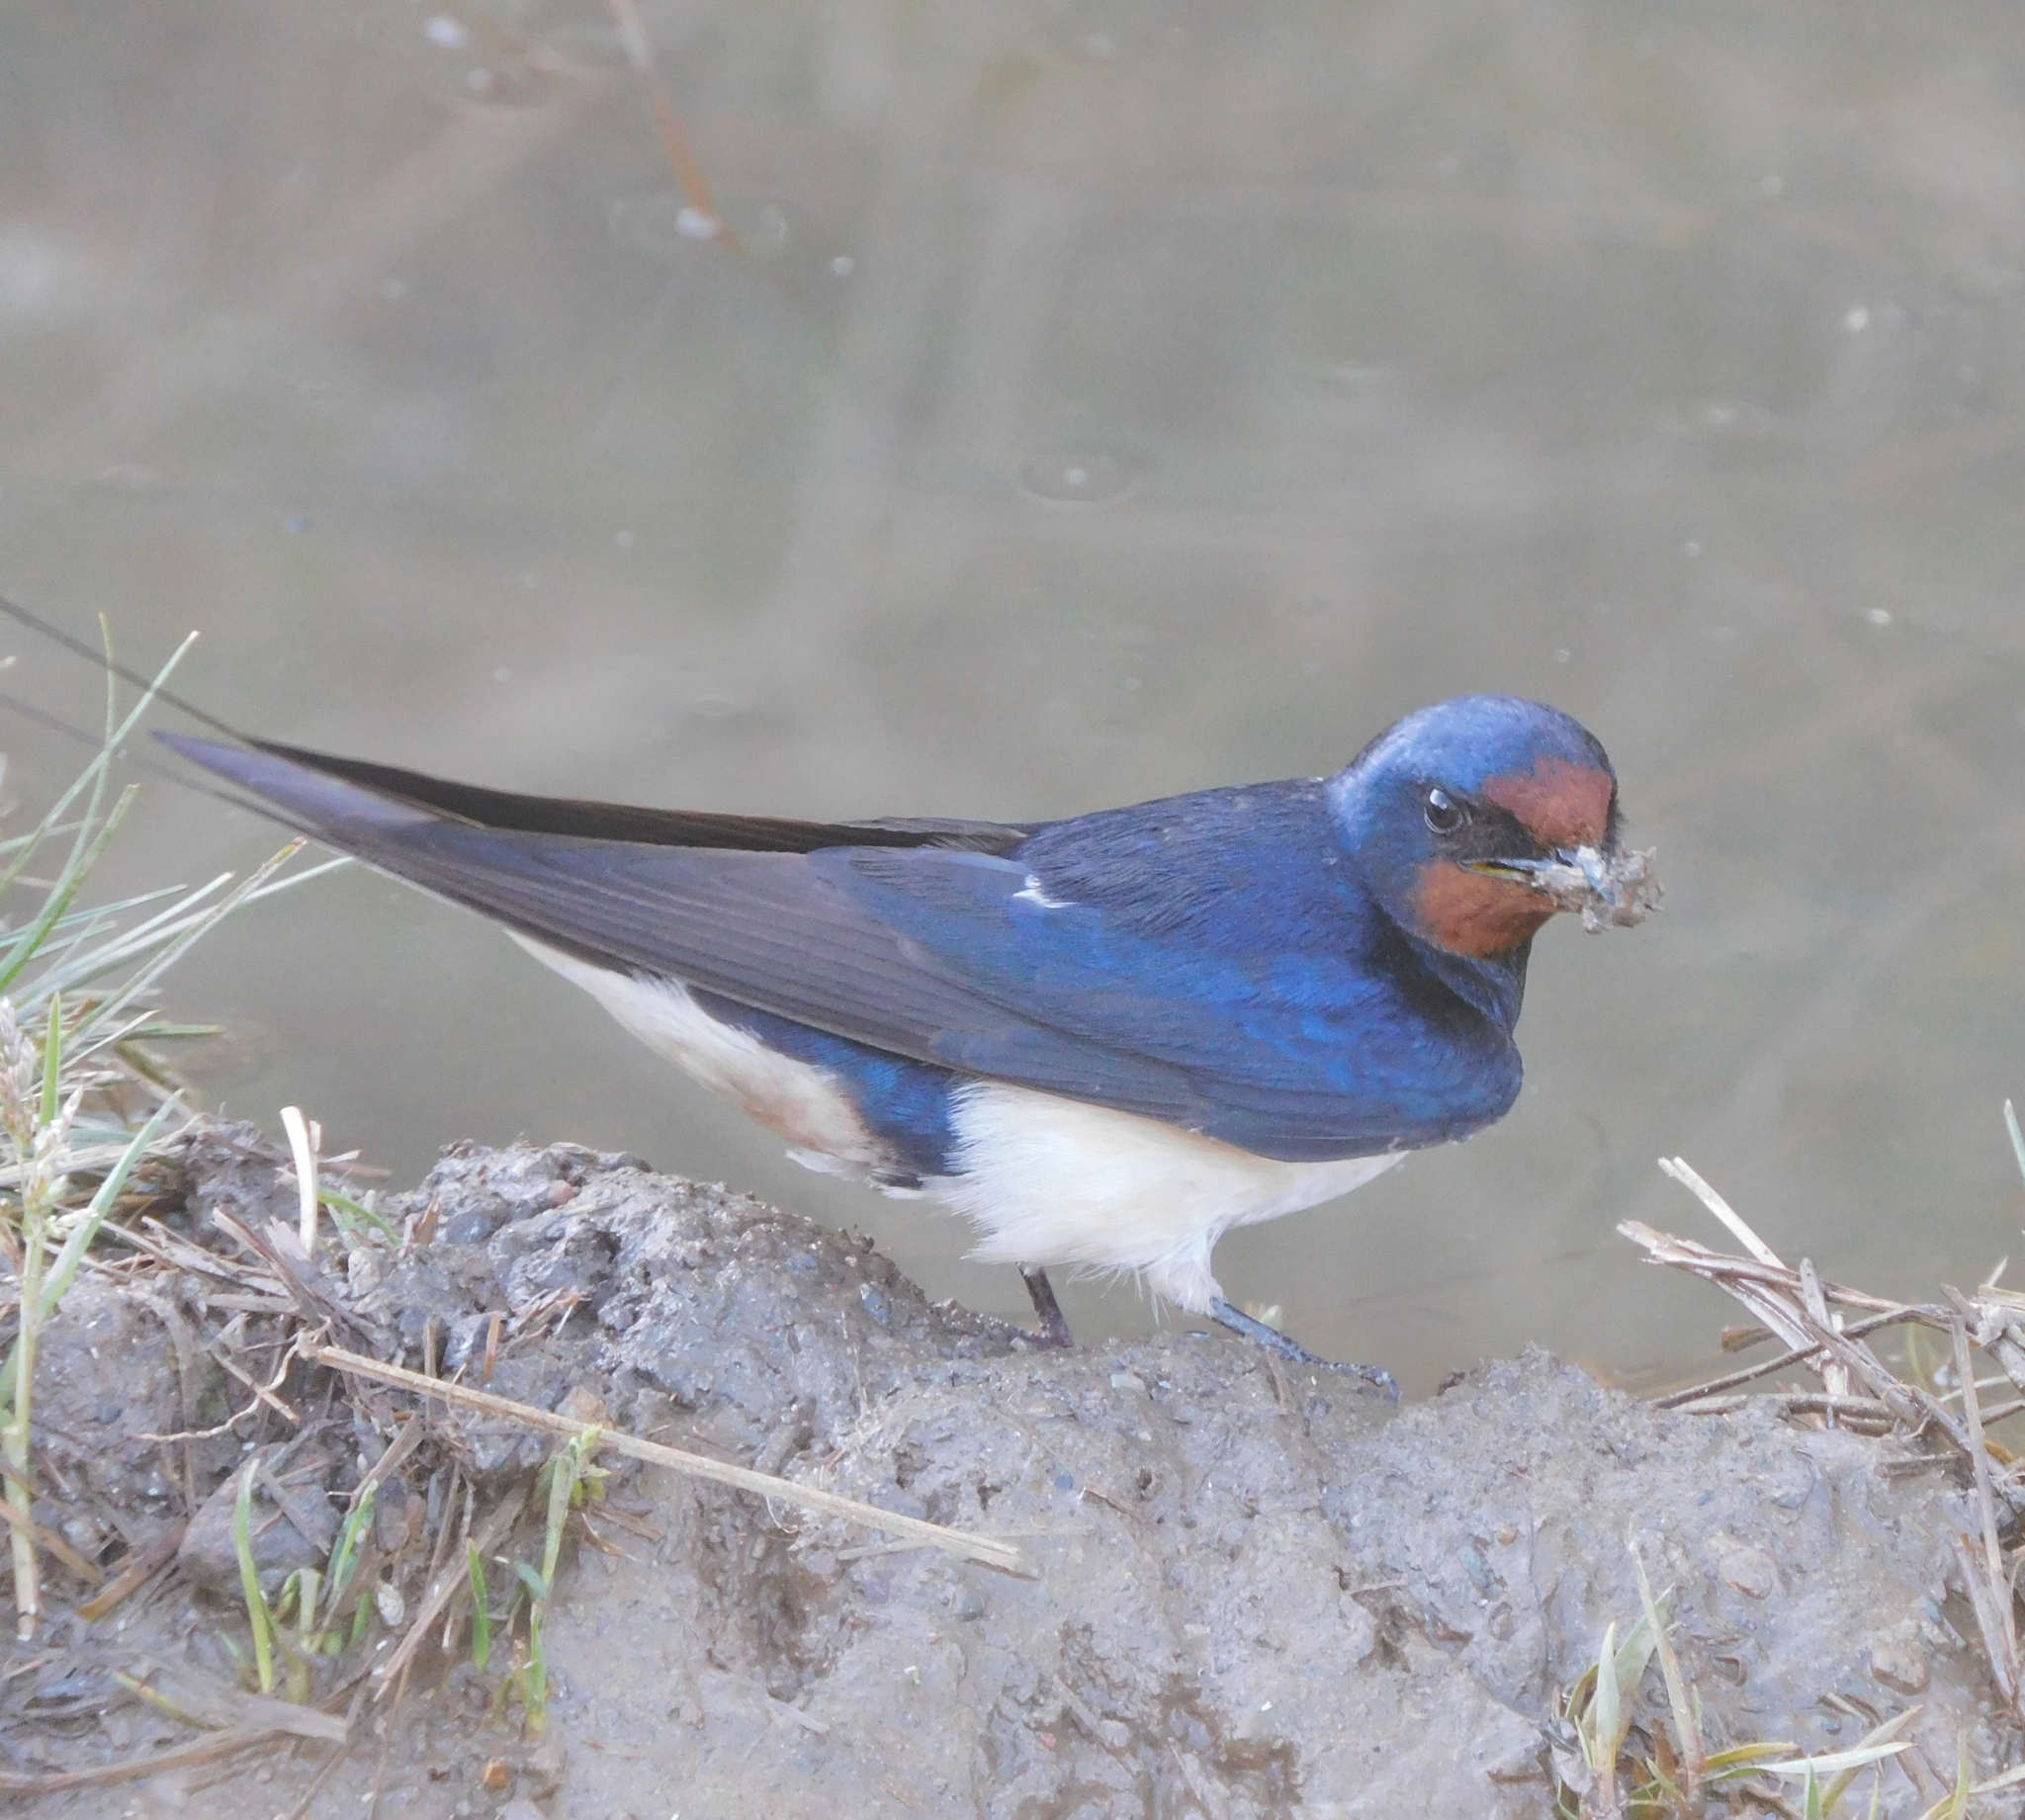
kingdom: Animalia
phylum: Chordata
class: Aves
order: Passeriformes
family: Hirundinidae
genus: Hirundo
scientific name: Hirundo rustica
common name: Barn swallow
